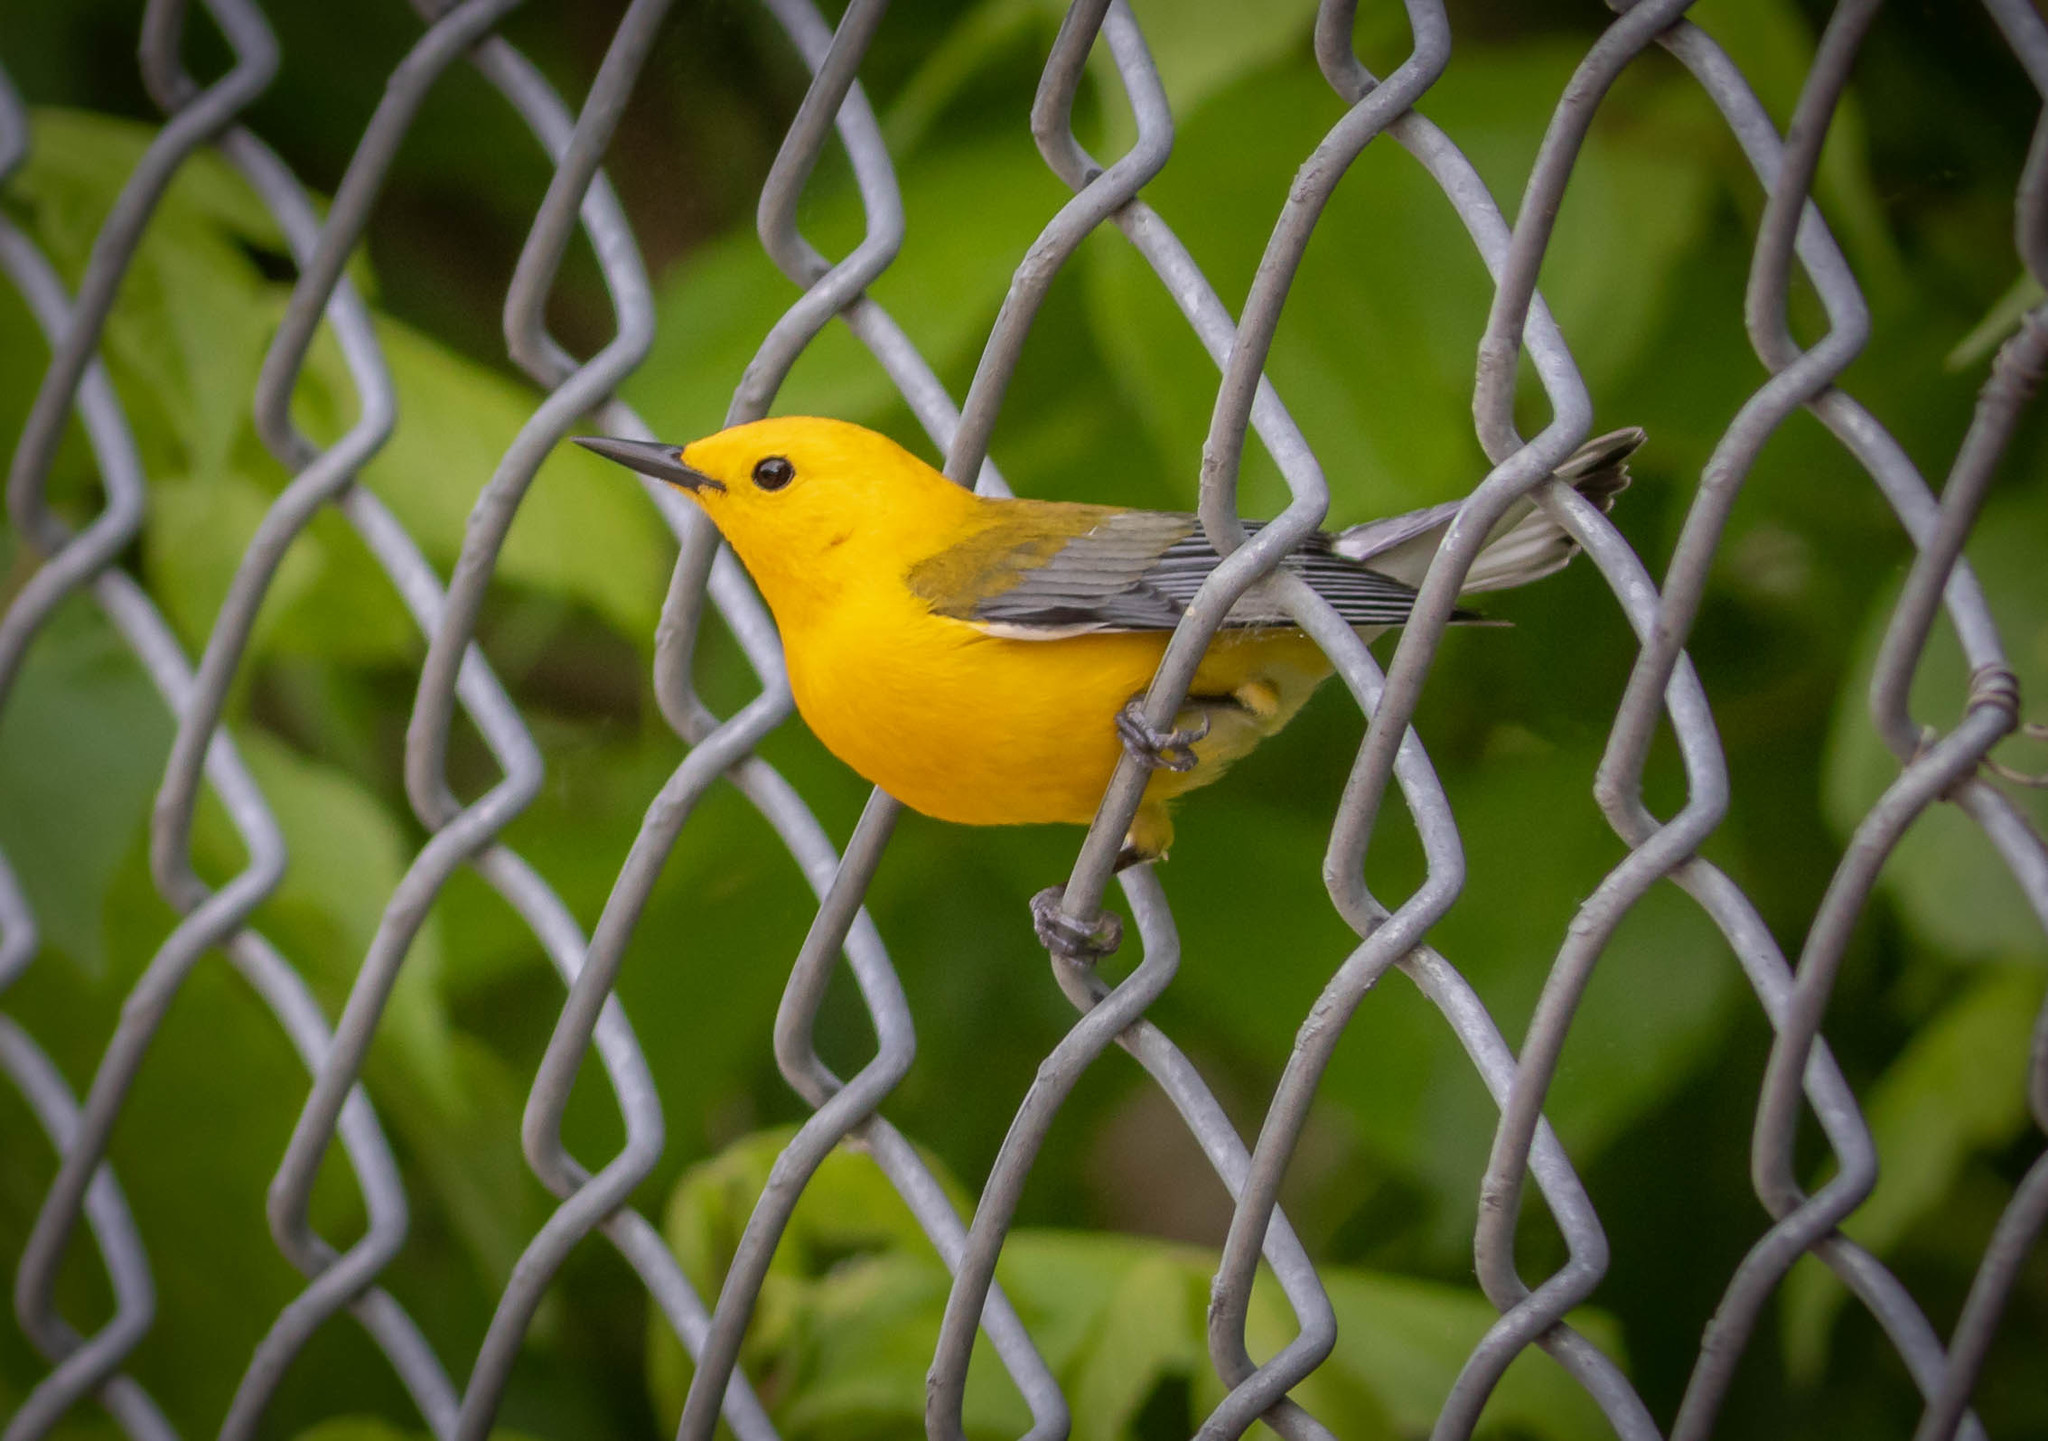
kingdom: Animalia
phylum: Chordata
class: Aves
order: Passeriformes
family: Parulidae
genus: Protonotaria
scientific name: Protonotaria citrea
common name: Prothonotary warbler
